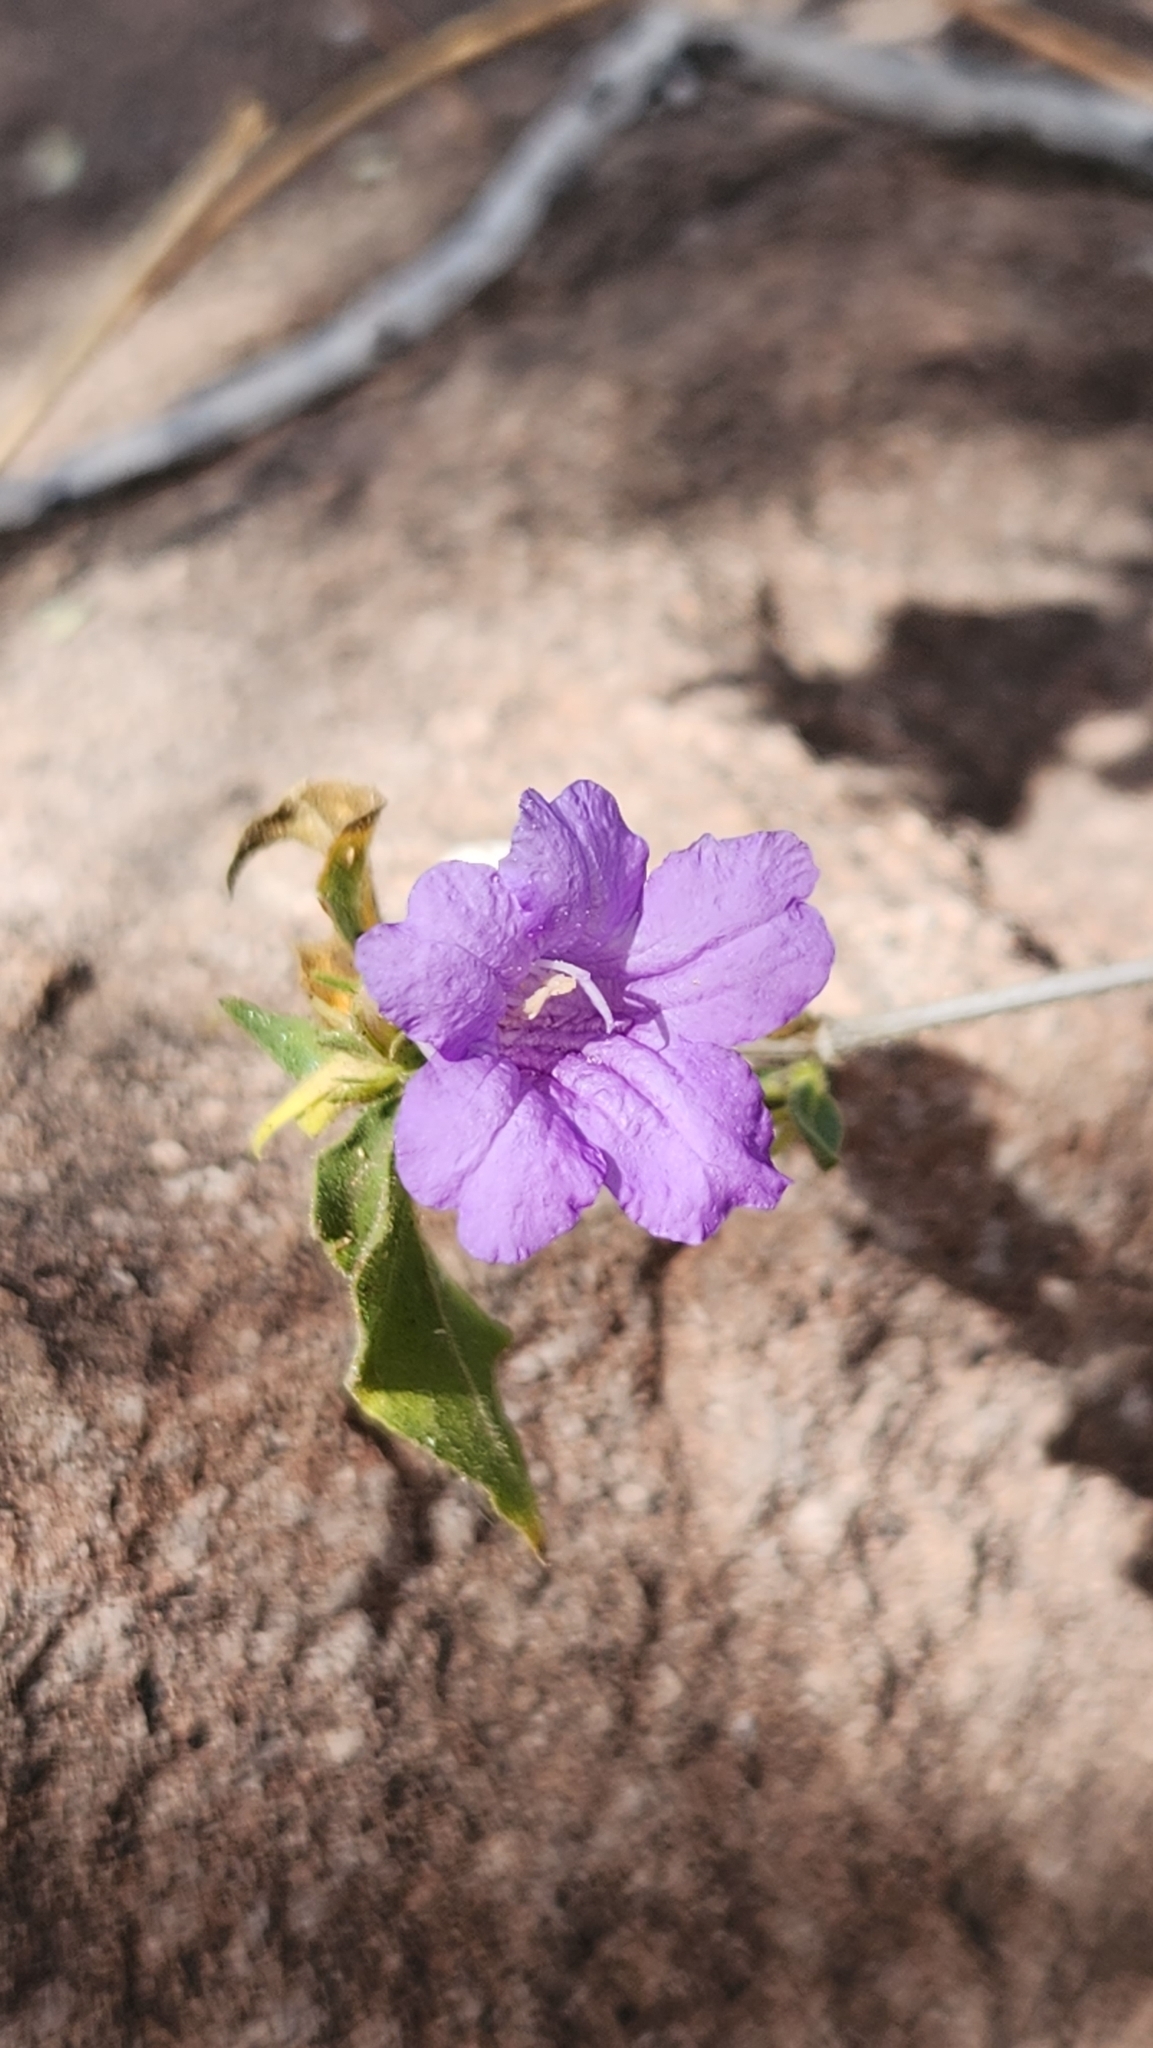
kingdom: Plantae
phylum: Tracheophyta
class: Magnoliopsida
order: Lamiales
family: Acanthaceae
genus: Ruellia
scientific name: Ruellia californica
